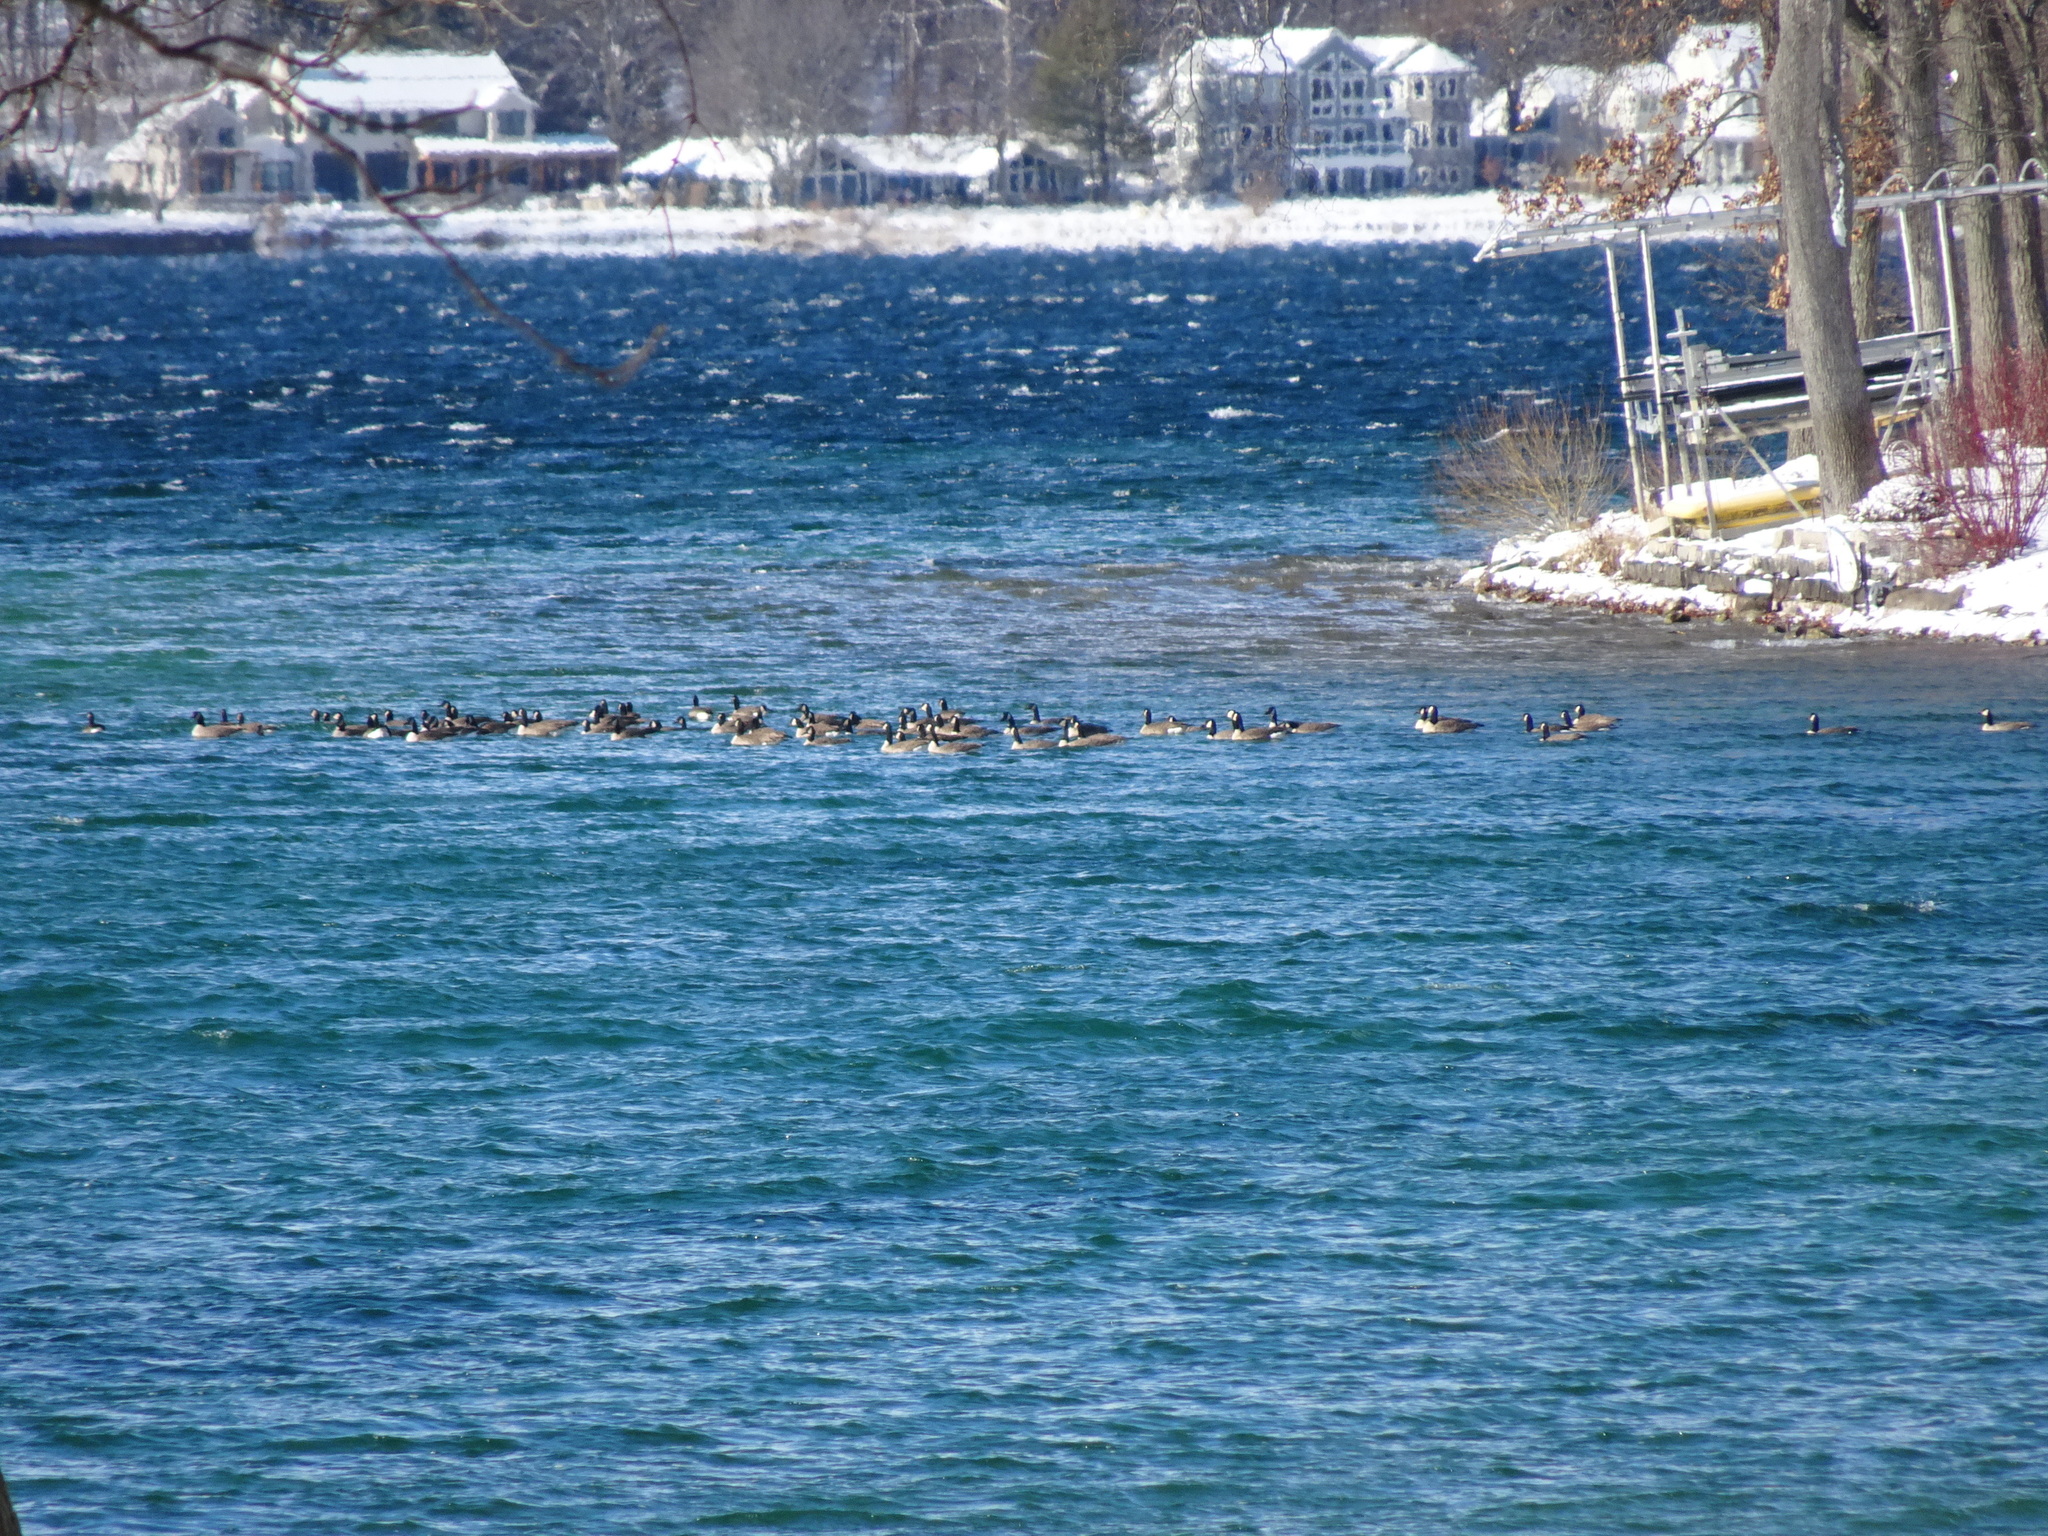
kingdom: Animalia
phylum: Chordata
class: Aves
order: Anseriformes
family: Anatidae
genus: Branta
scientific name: Branta canadensis
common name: Canada goose
